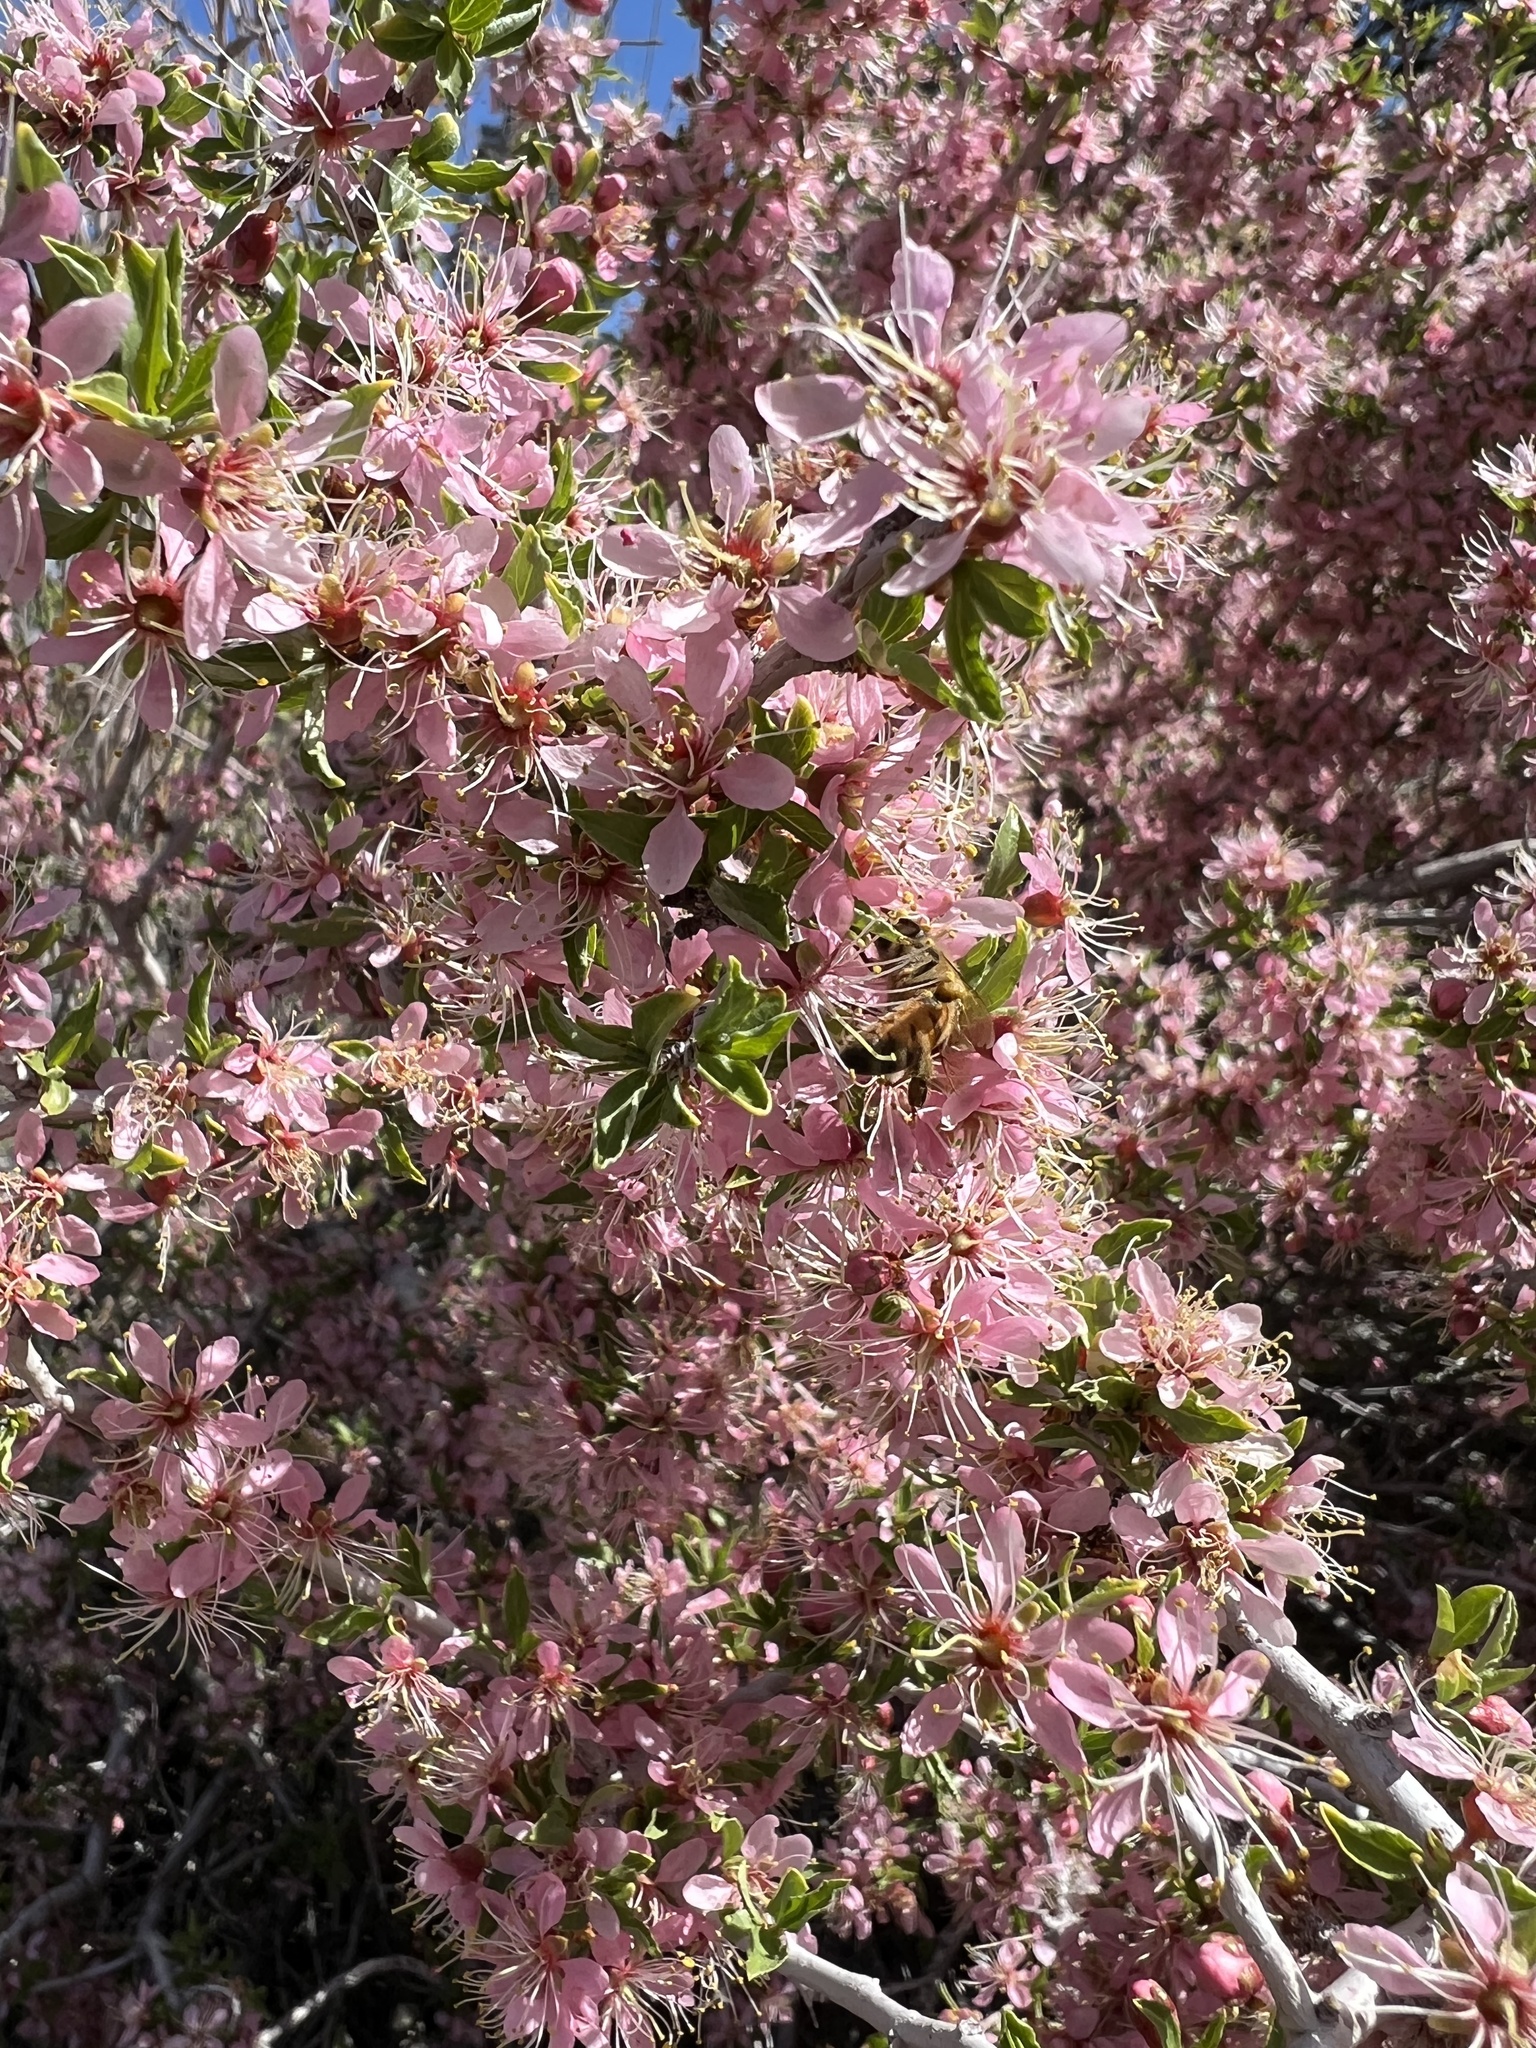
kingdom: Plantae
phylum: Tracheophyta
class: Magnoliopsida
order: Rosales
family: Rosaceae
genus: Prunus
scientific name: Prunus andersonii
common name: Desert peach
